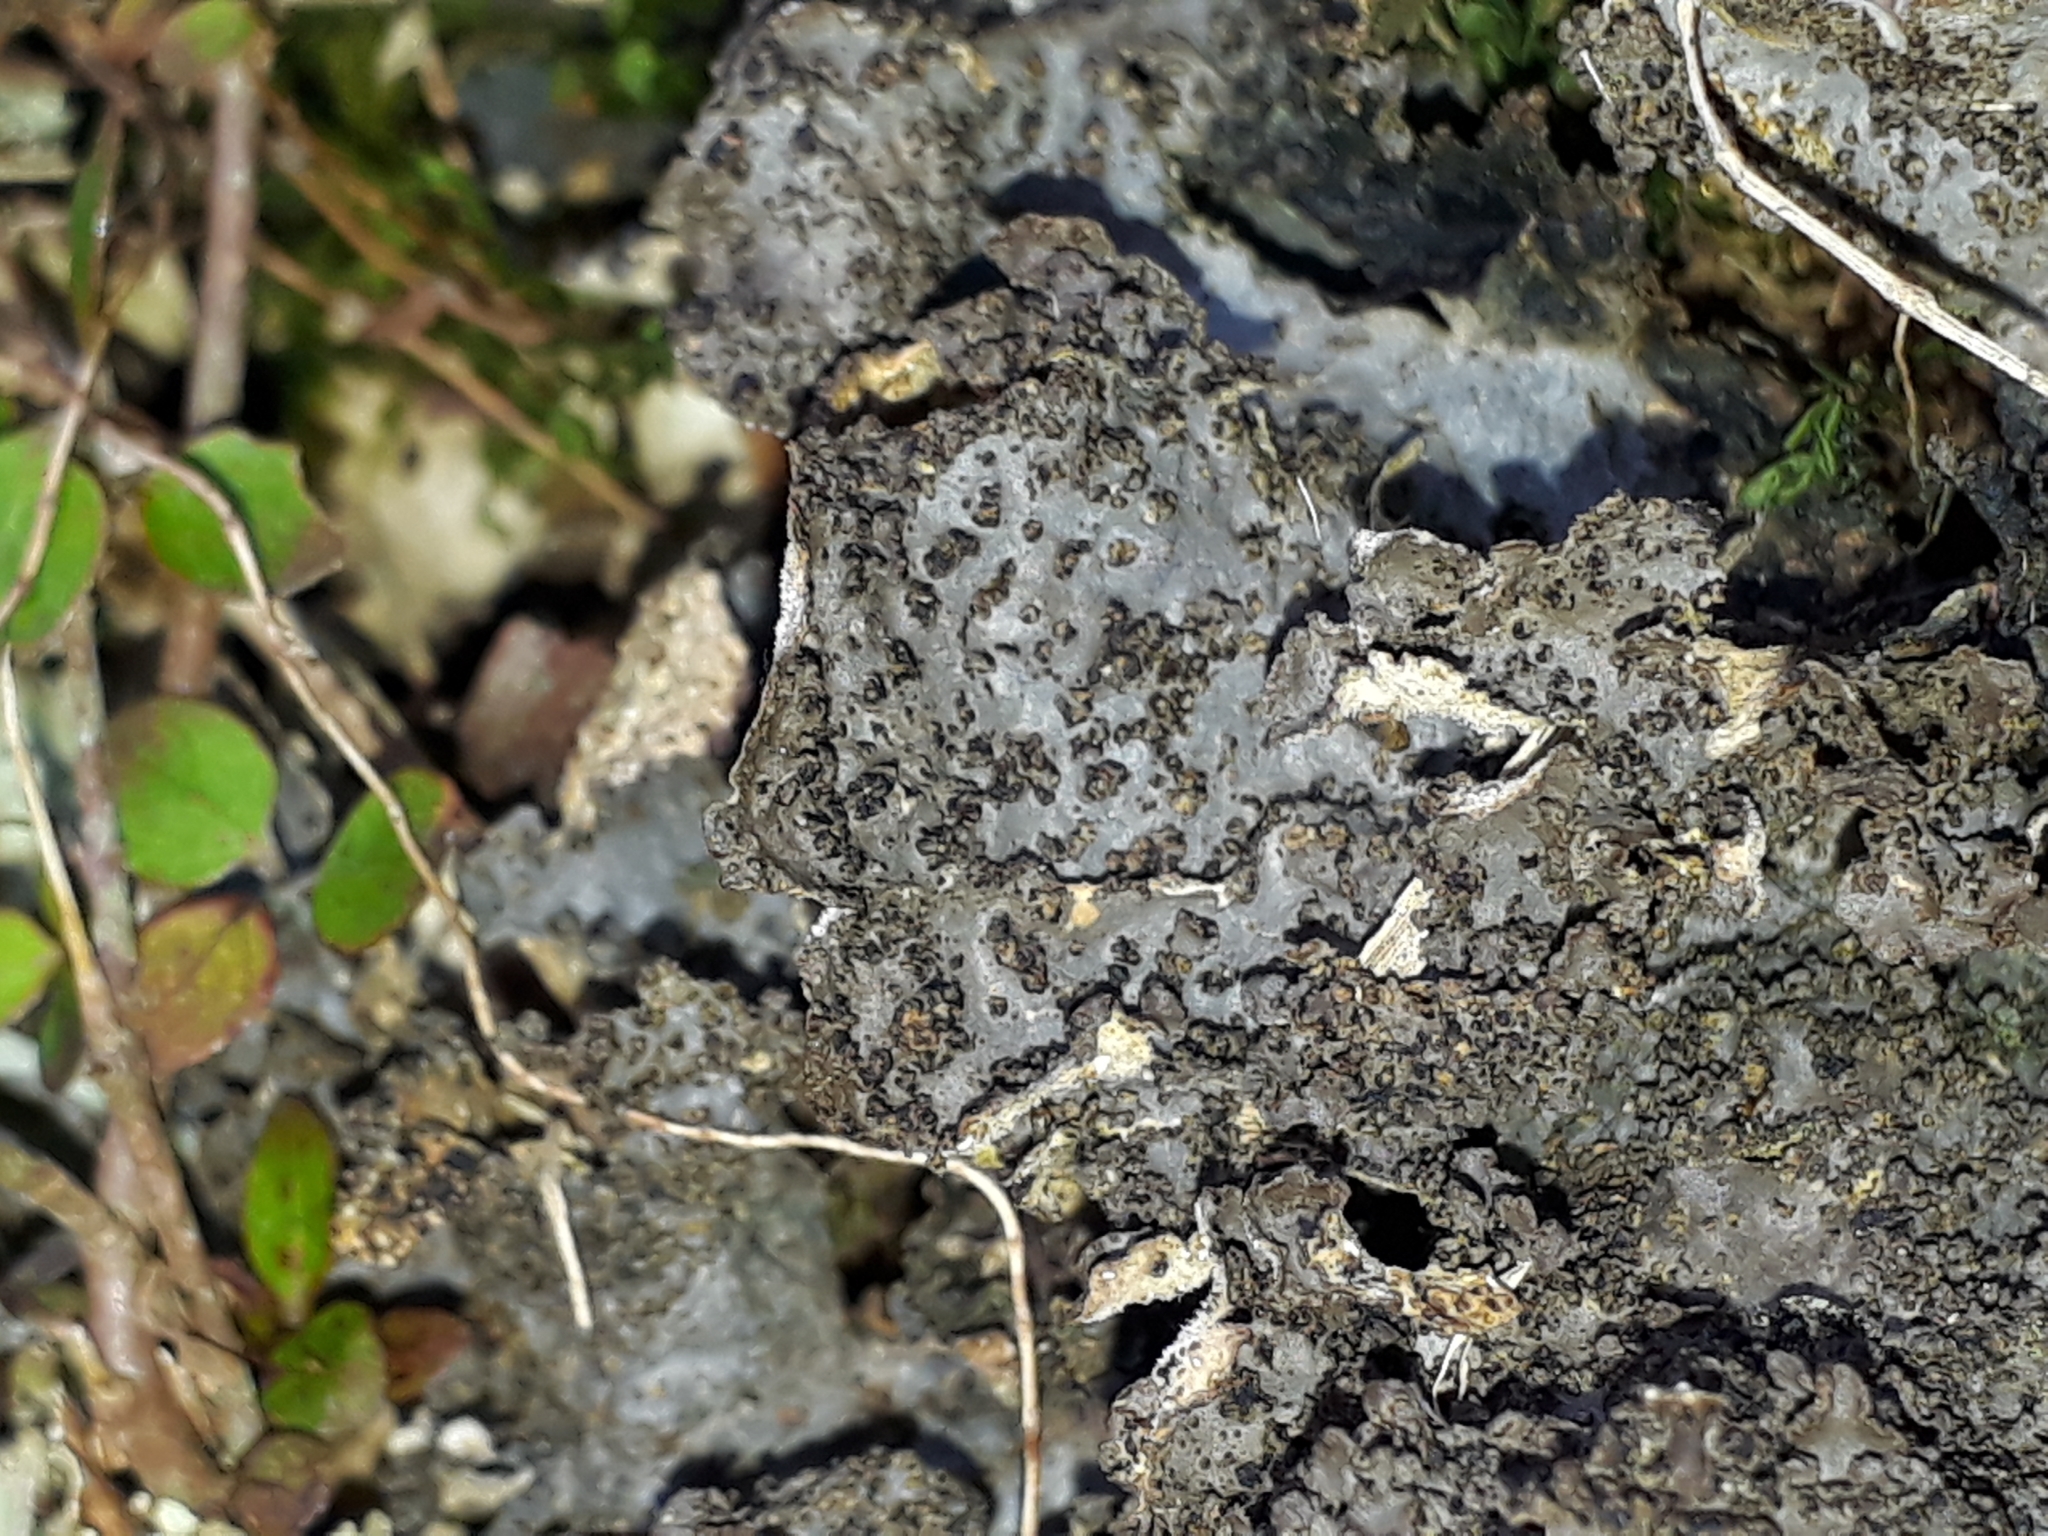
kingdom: Fungi
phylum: Ascomycota
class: Lecanoromycetes
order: Peltigerales
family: Lobariaceae
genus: Sticta
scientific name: Sticta fuliginosa
